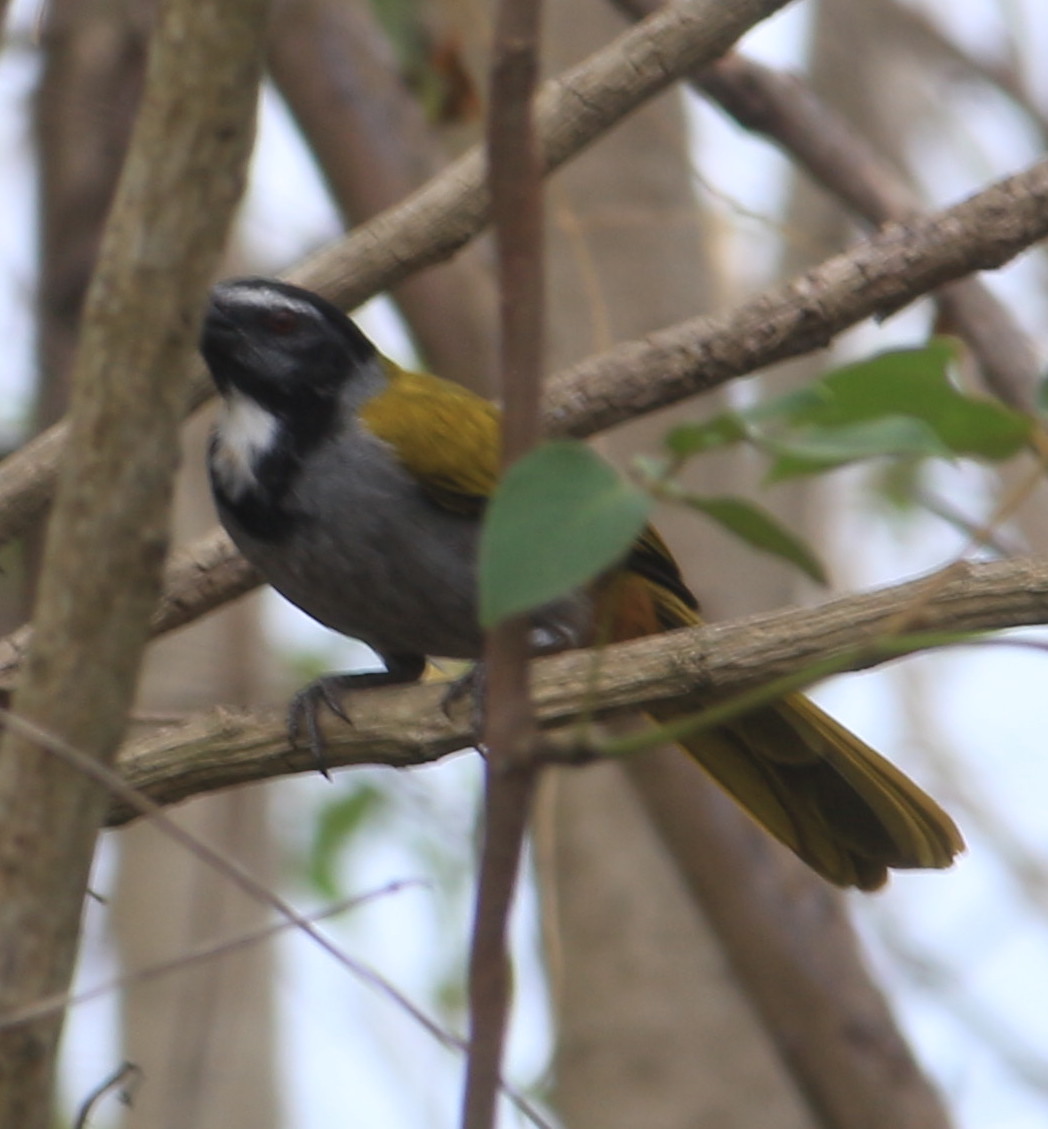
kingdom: Animalia
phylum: Chordata
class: Aves
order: Passeriformes
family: Thraupidae
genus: Saltator
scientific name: Saltator atriceps
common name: Black-headed saltator
